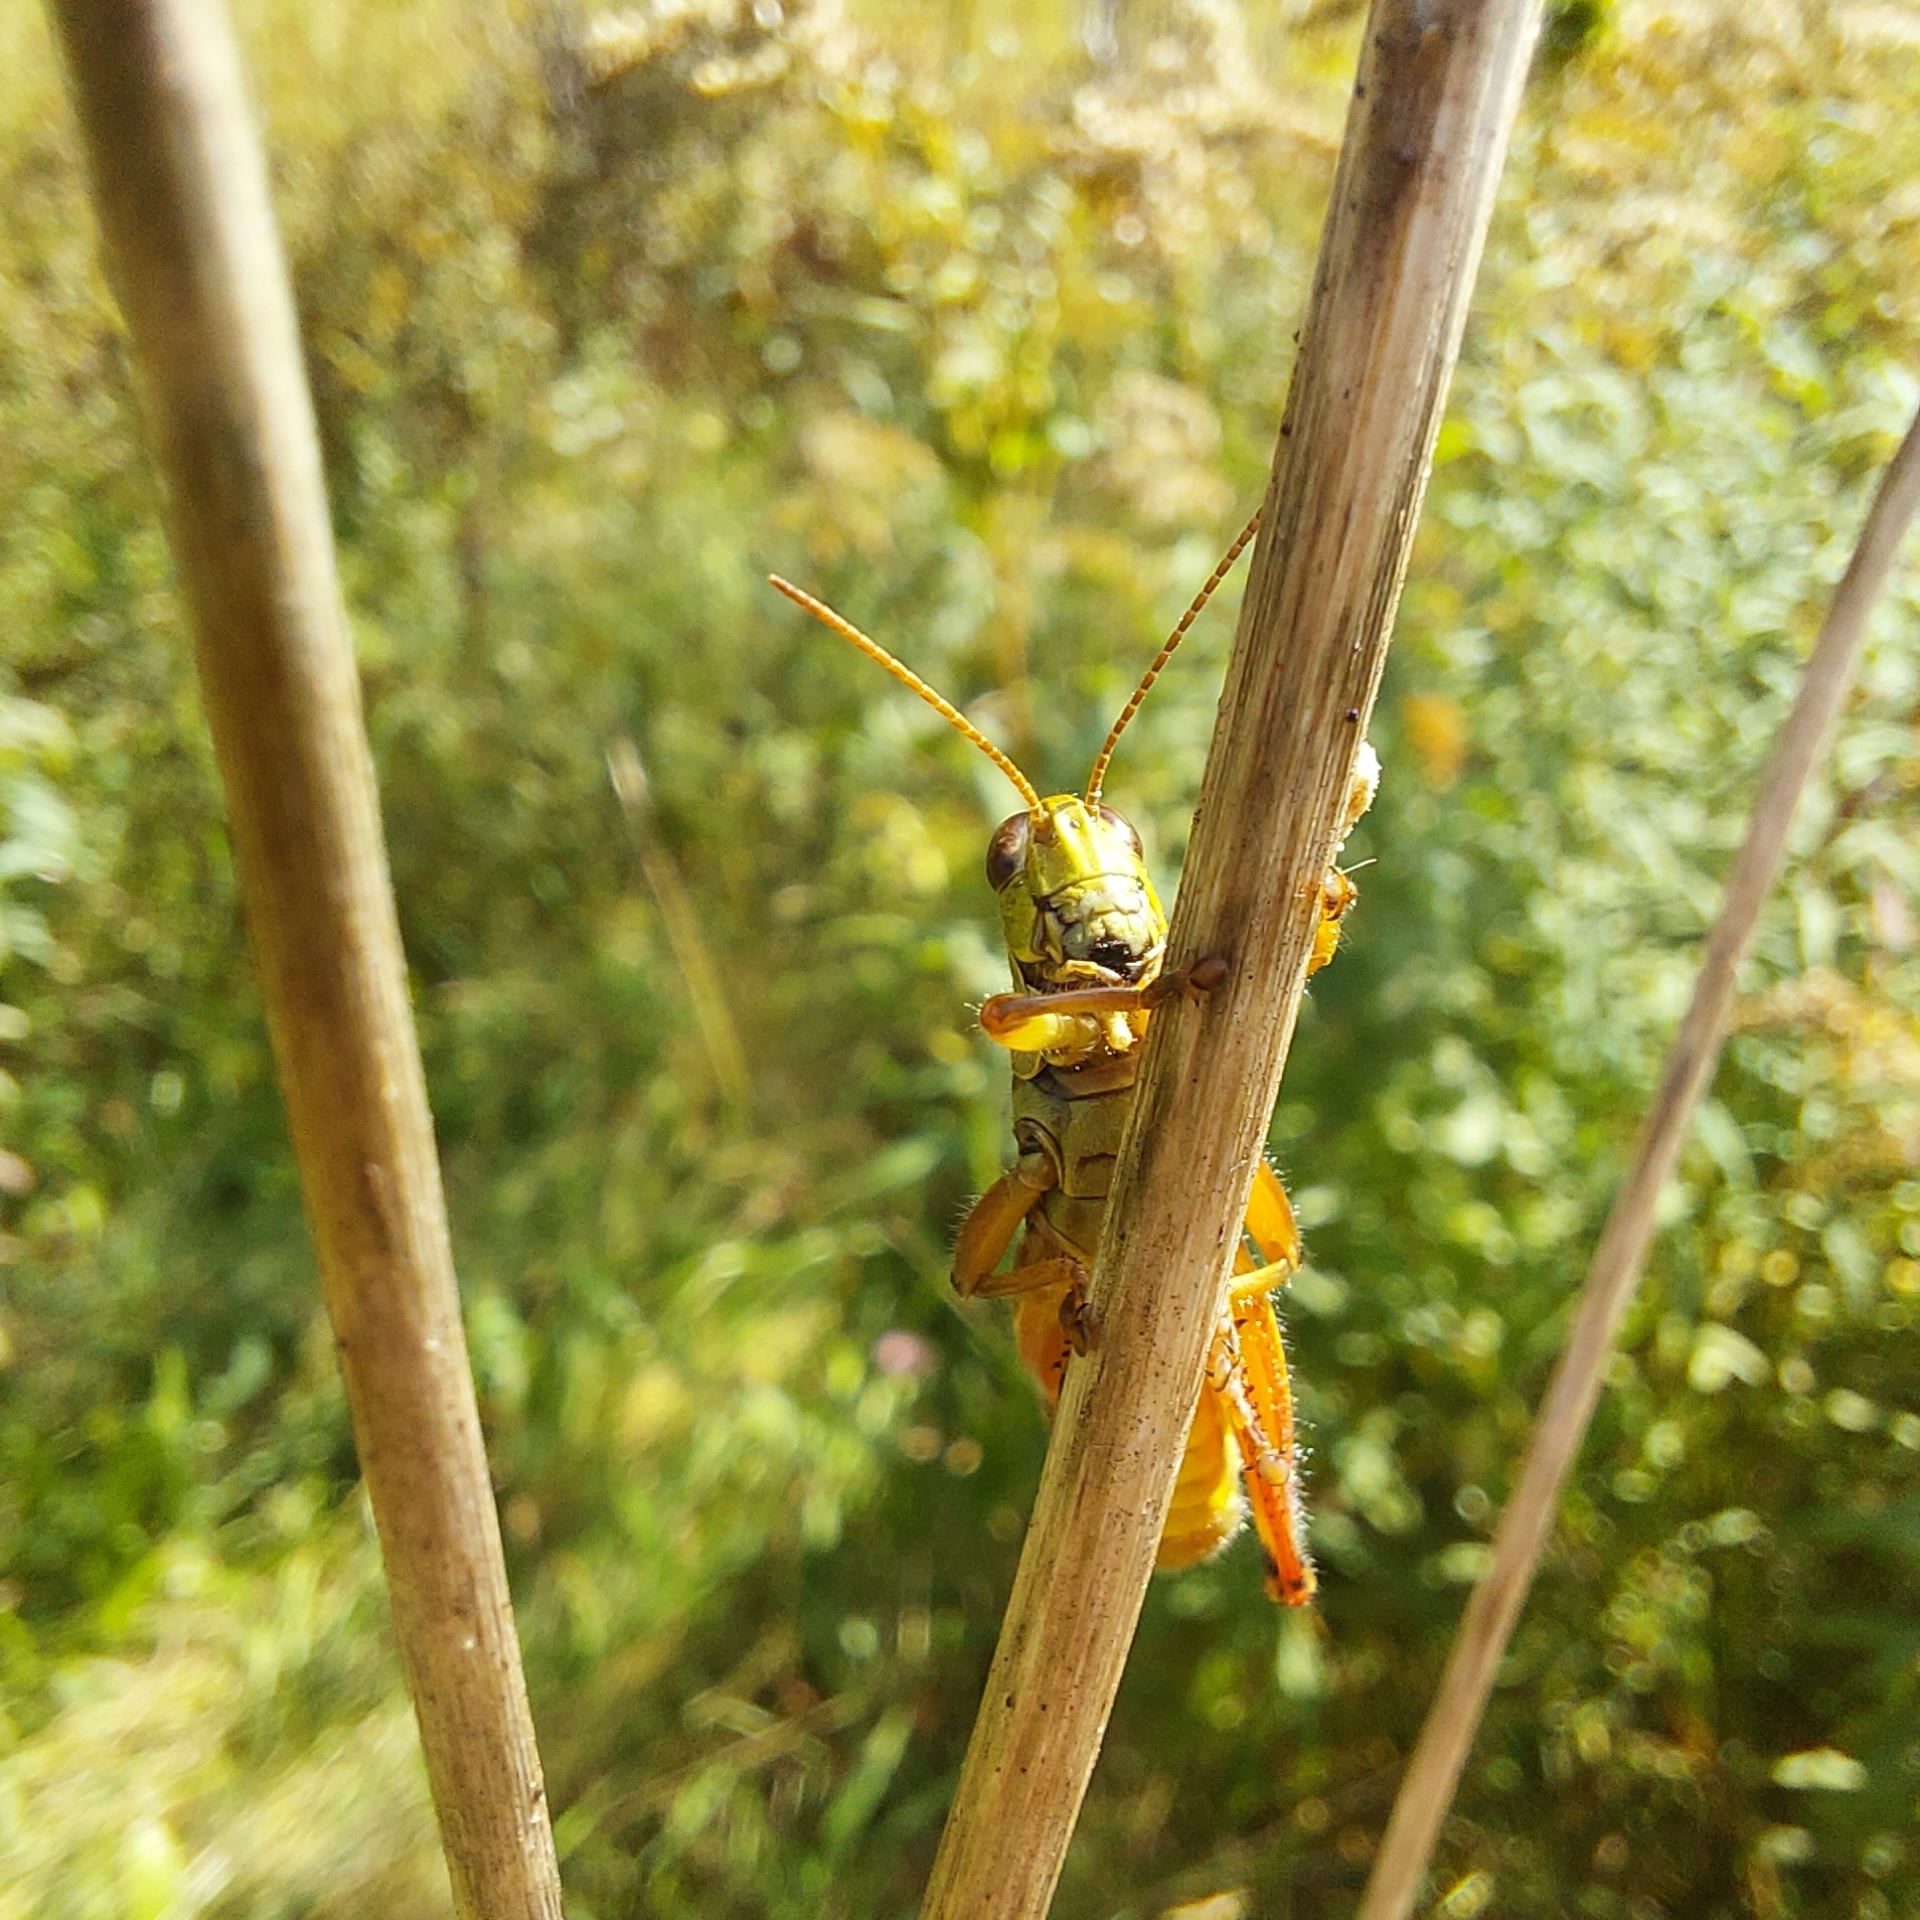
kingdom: Animalia
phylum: Arthropoda
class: Insecta
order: Orthoptera
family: Acrididae
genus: Melanoplus
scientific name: Melanoplus femurrubrum
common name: Red-legged grasshopper
